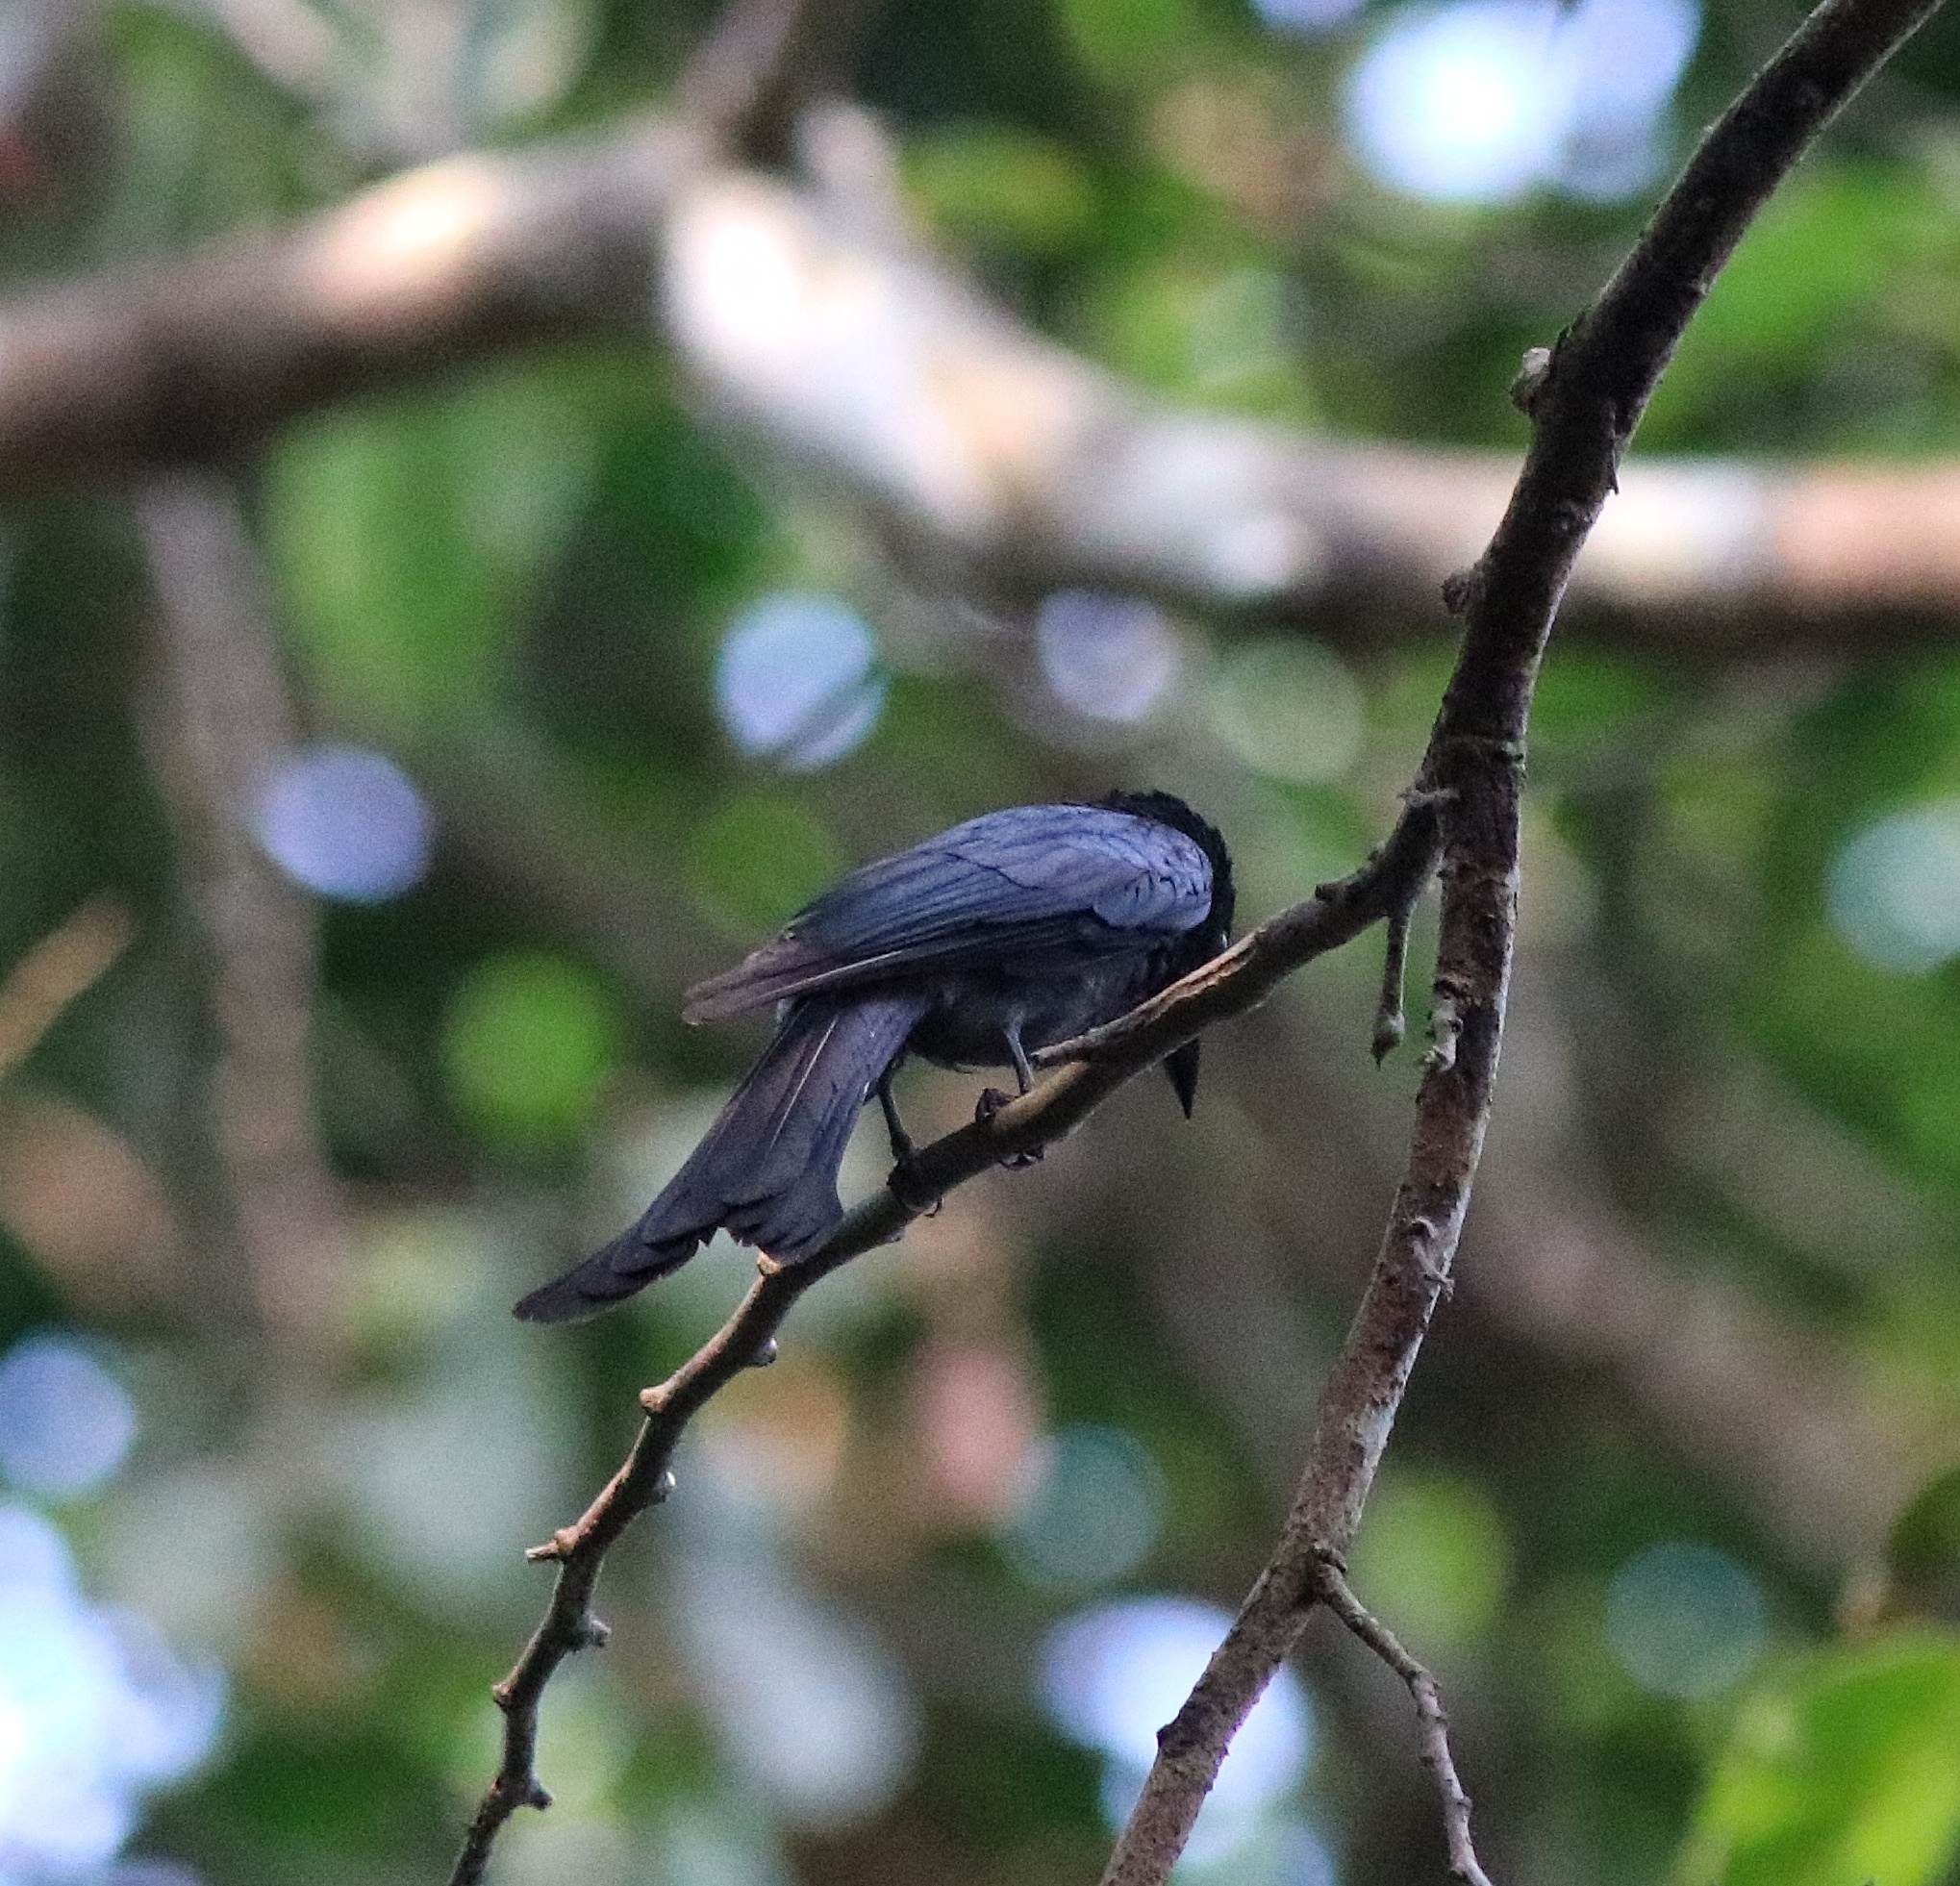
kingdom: Animalia
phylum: Chordata
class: Aves
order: Passeriformes
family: Dicruridae
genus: Dicrurus
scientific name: Dicrurus aeneus
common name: Bronzed drongo
